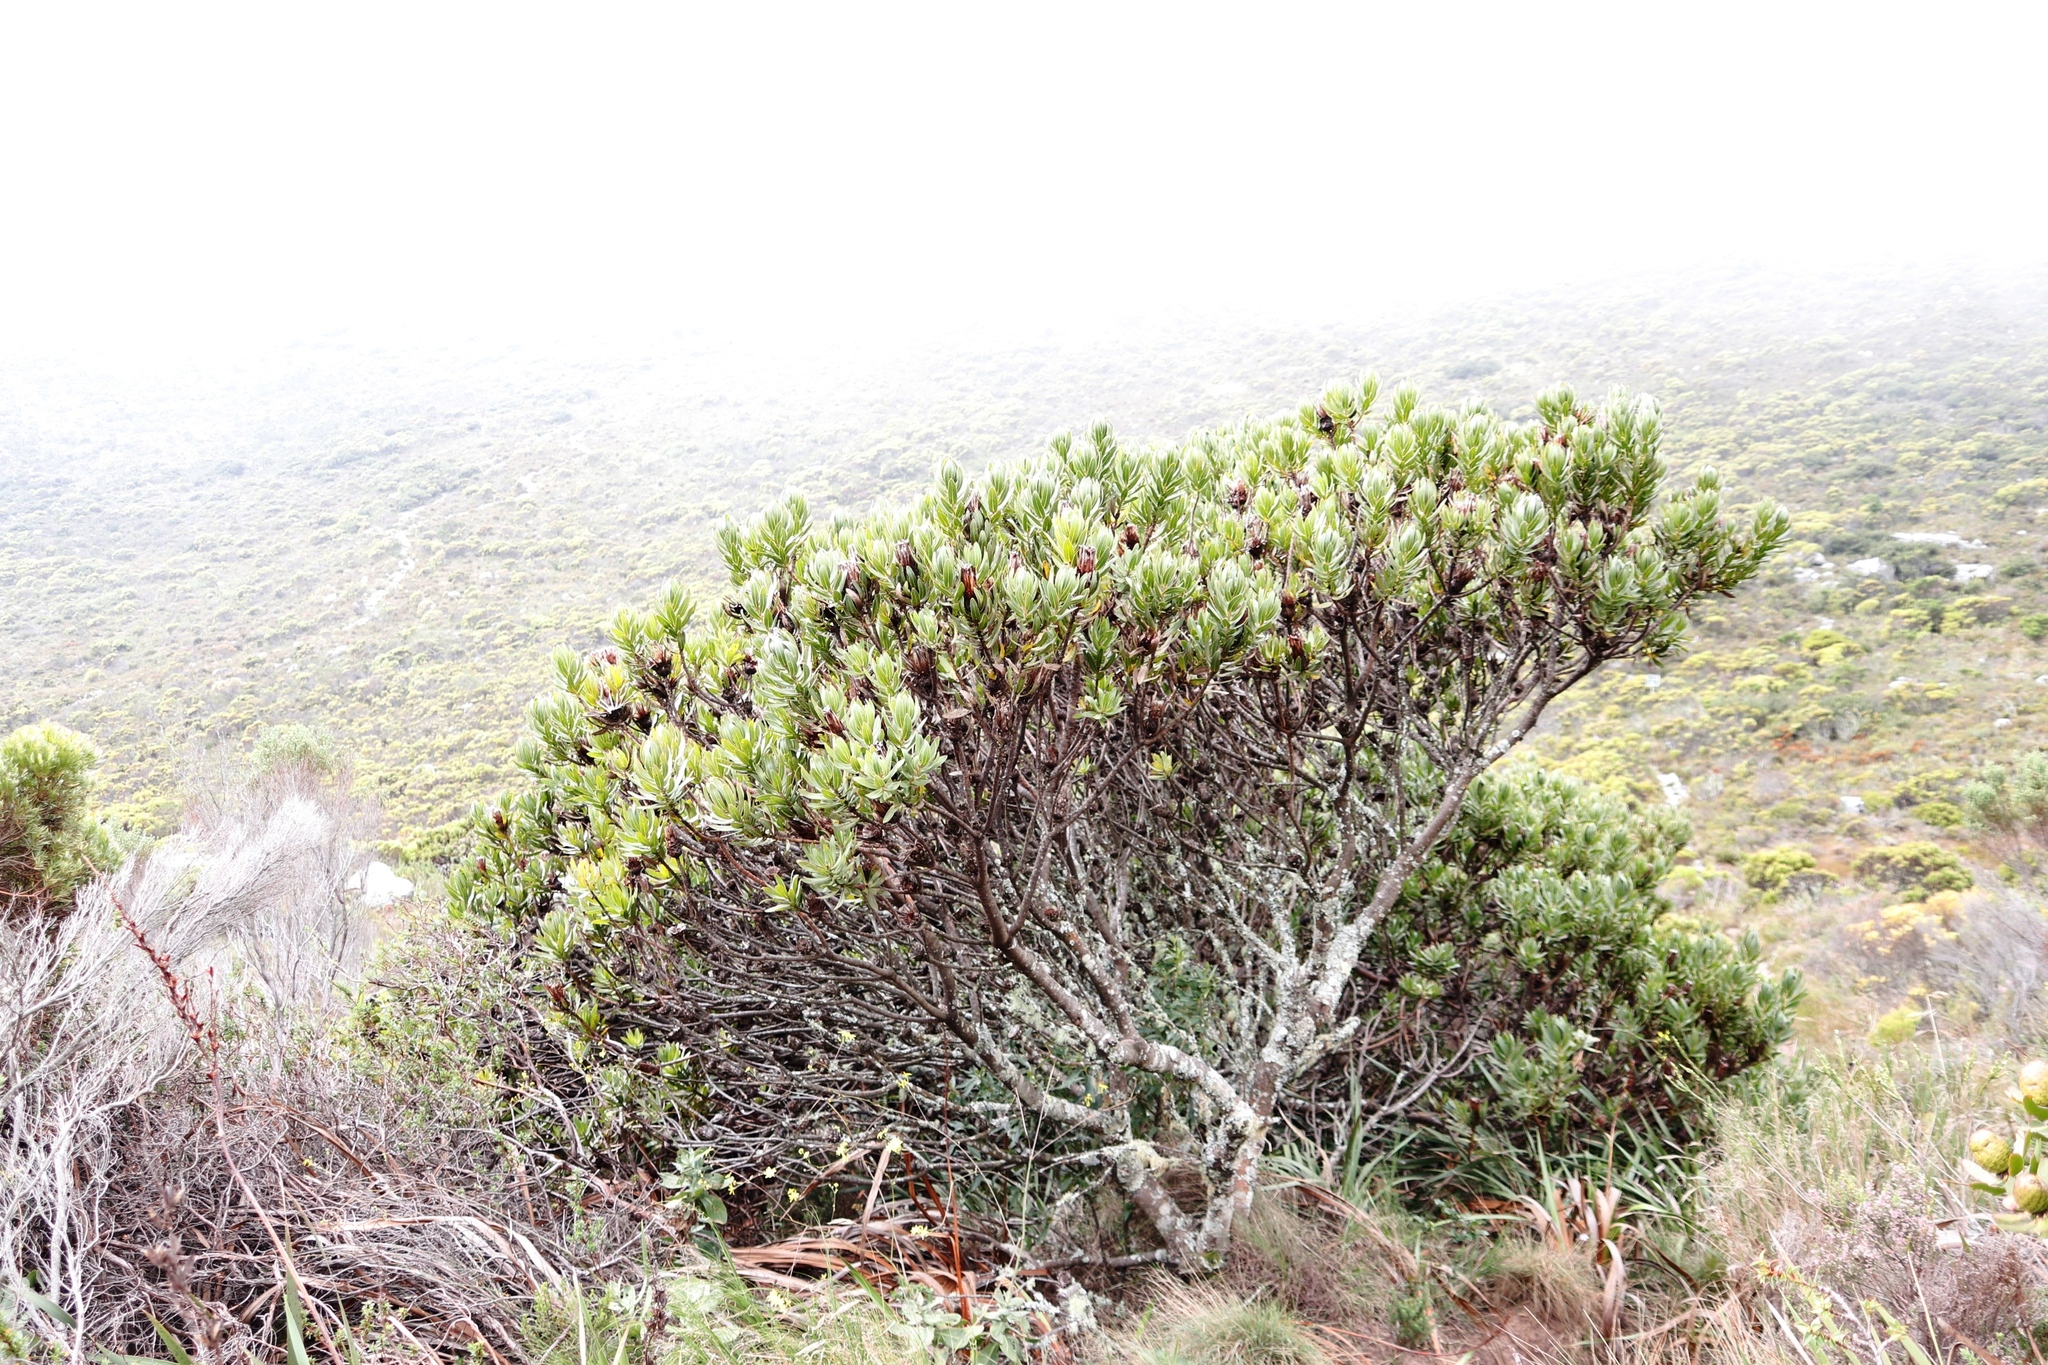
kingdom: Plantae
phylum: Tracheophyta
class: Magnoliopsida
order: Proteales
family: Proteaceae
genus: Protea
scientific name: Protea lepidocarpodendron
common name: Black-bearded protea
